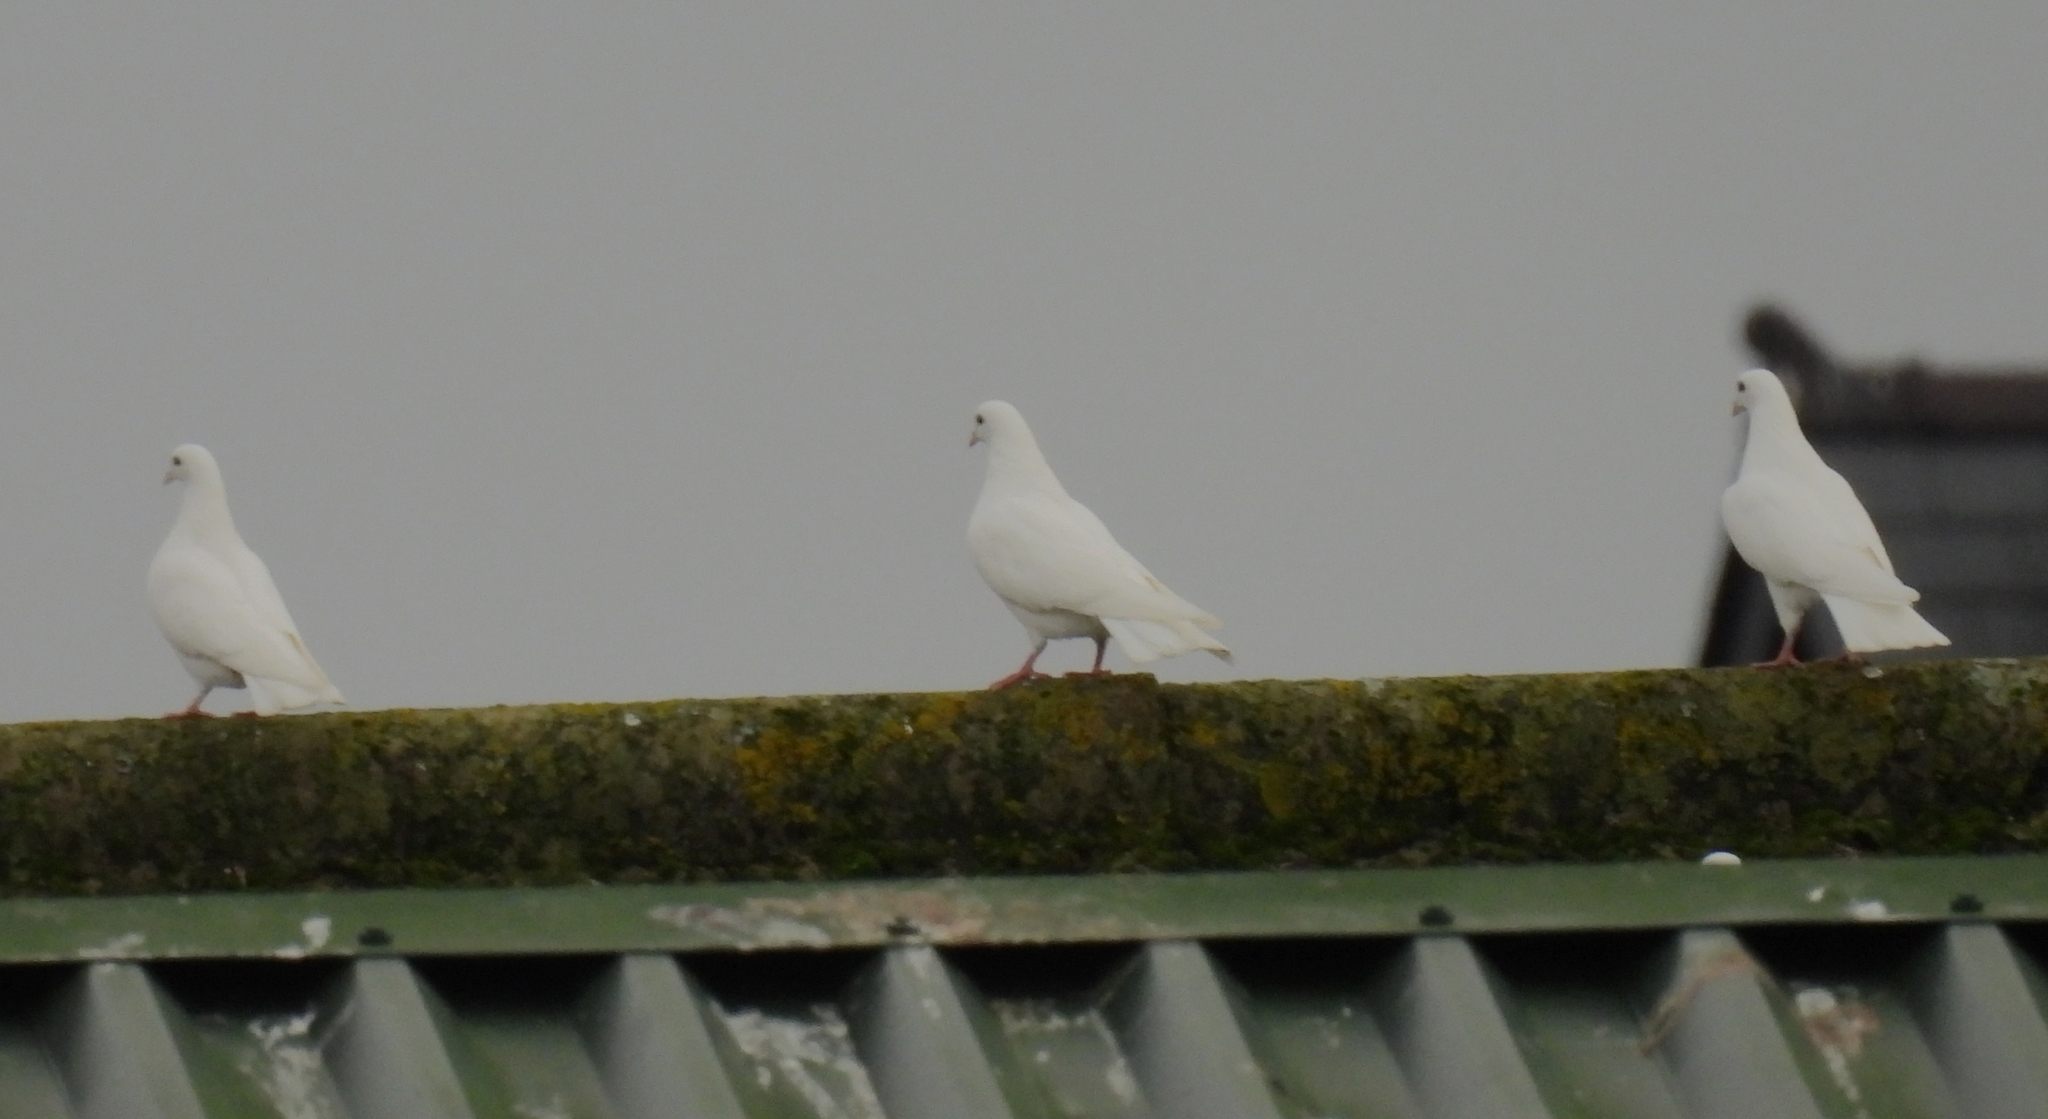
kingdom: Animalia
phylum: Chordata
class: Aves
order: Columbiformes
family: Columbidae
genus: Columba
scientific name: Columba livia
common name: Rock pigeon
